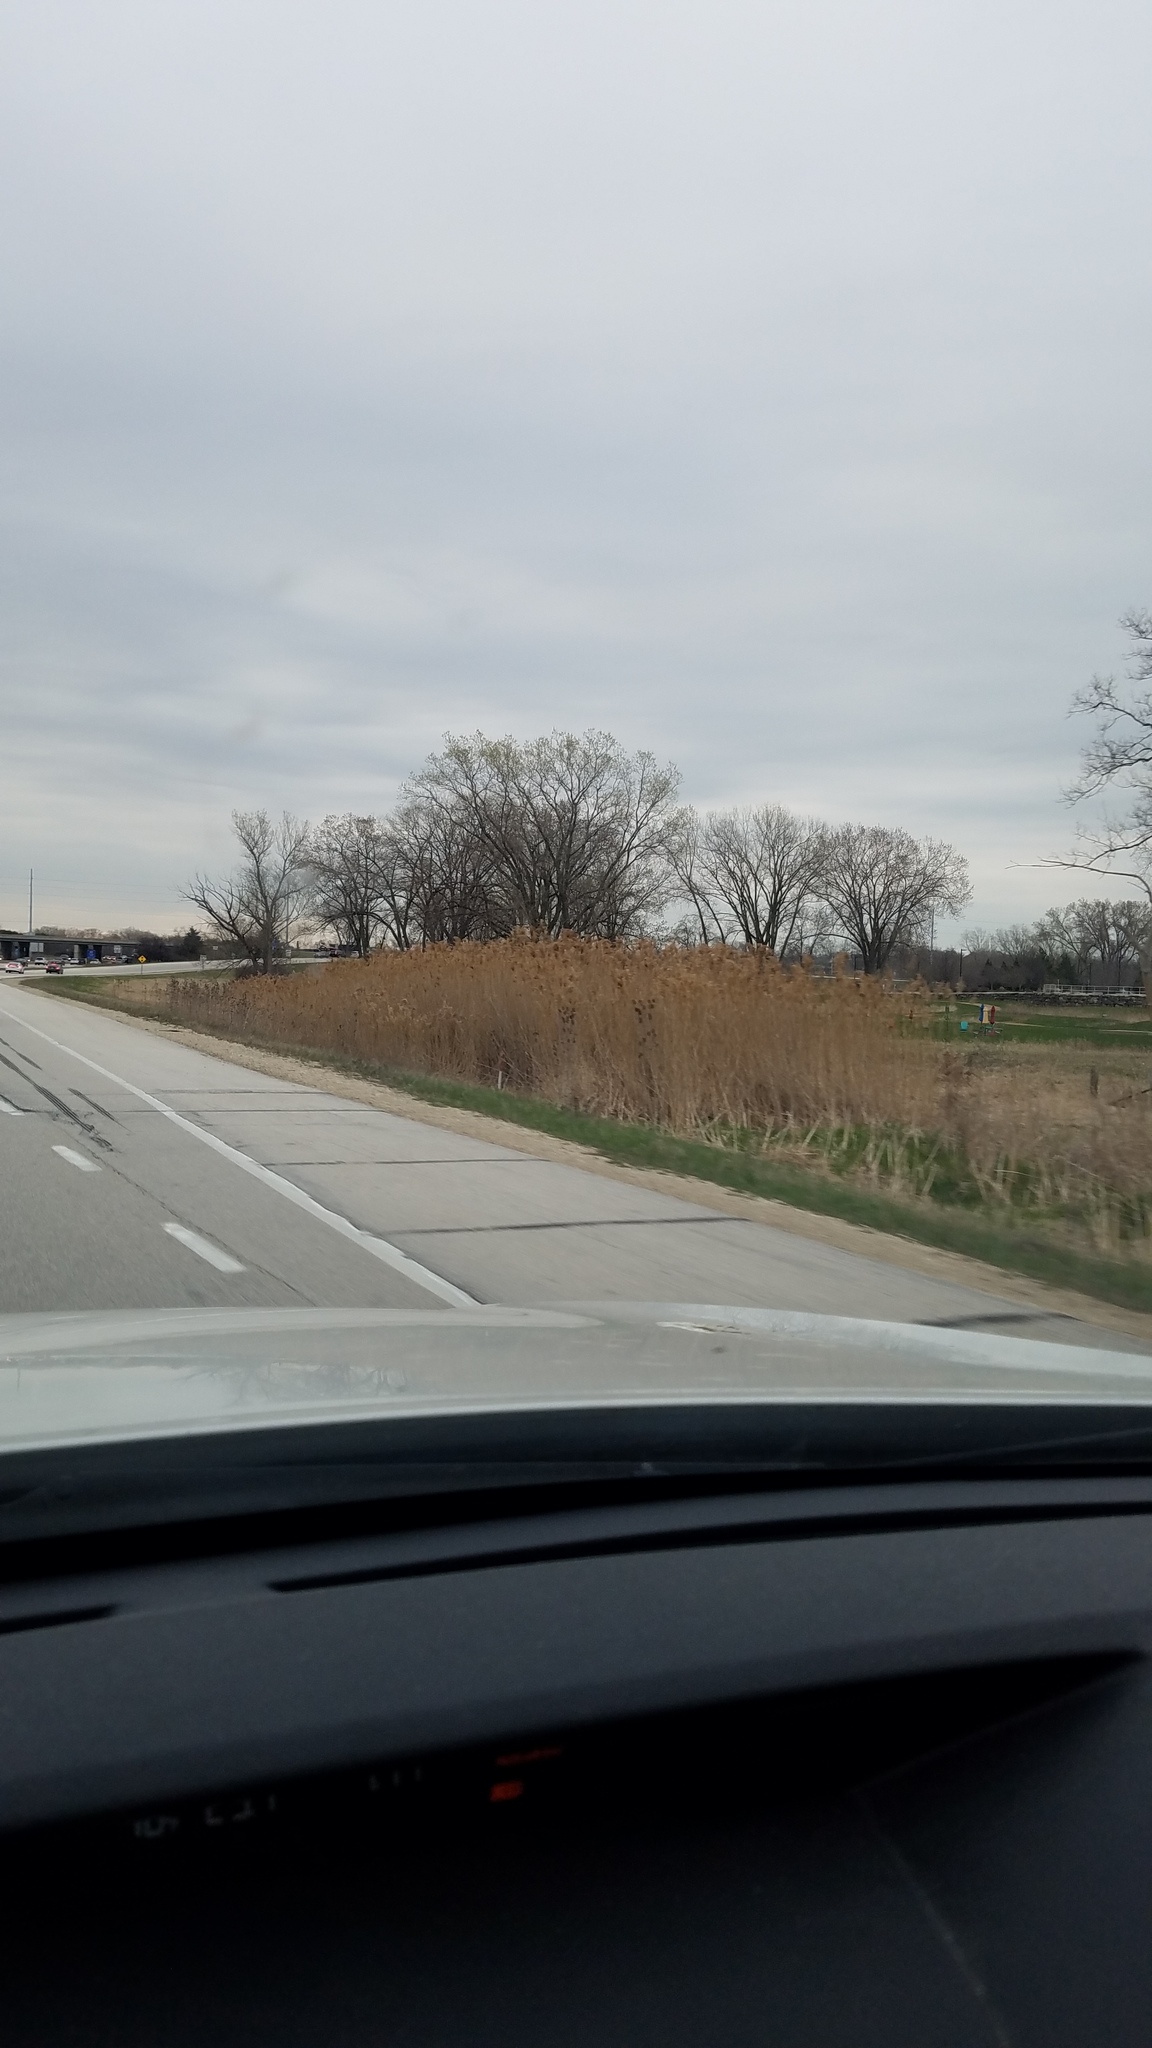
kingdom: Plantae
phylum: Tracheophyta
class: Liliopsida
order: Poales
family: Poaceae
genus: Phragmites
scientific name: Phragmites australis
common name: Common reed
